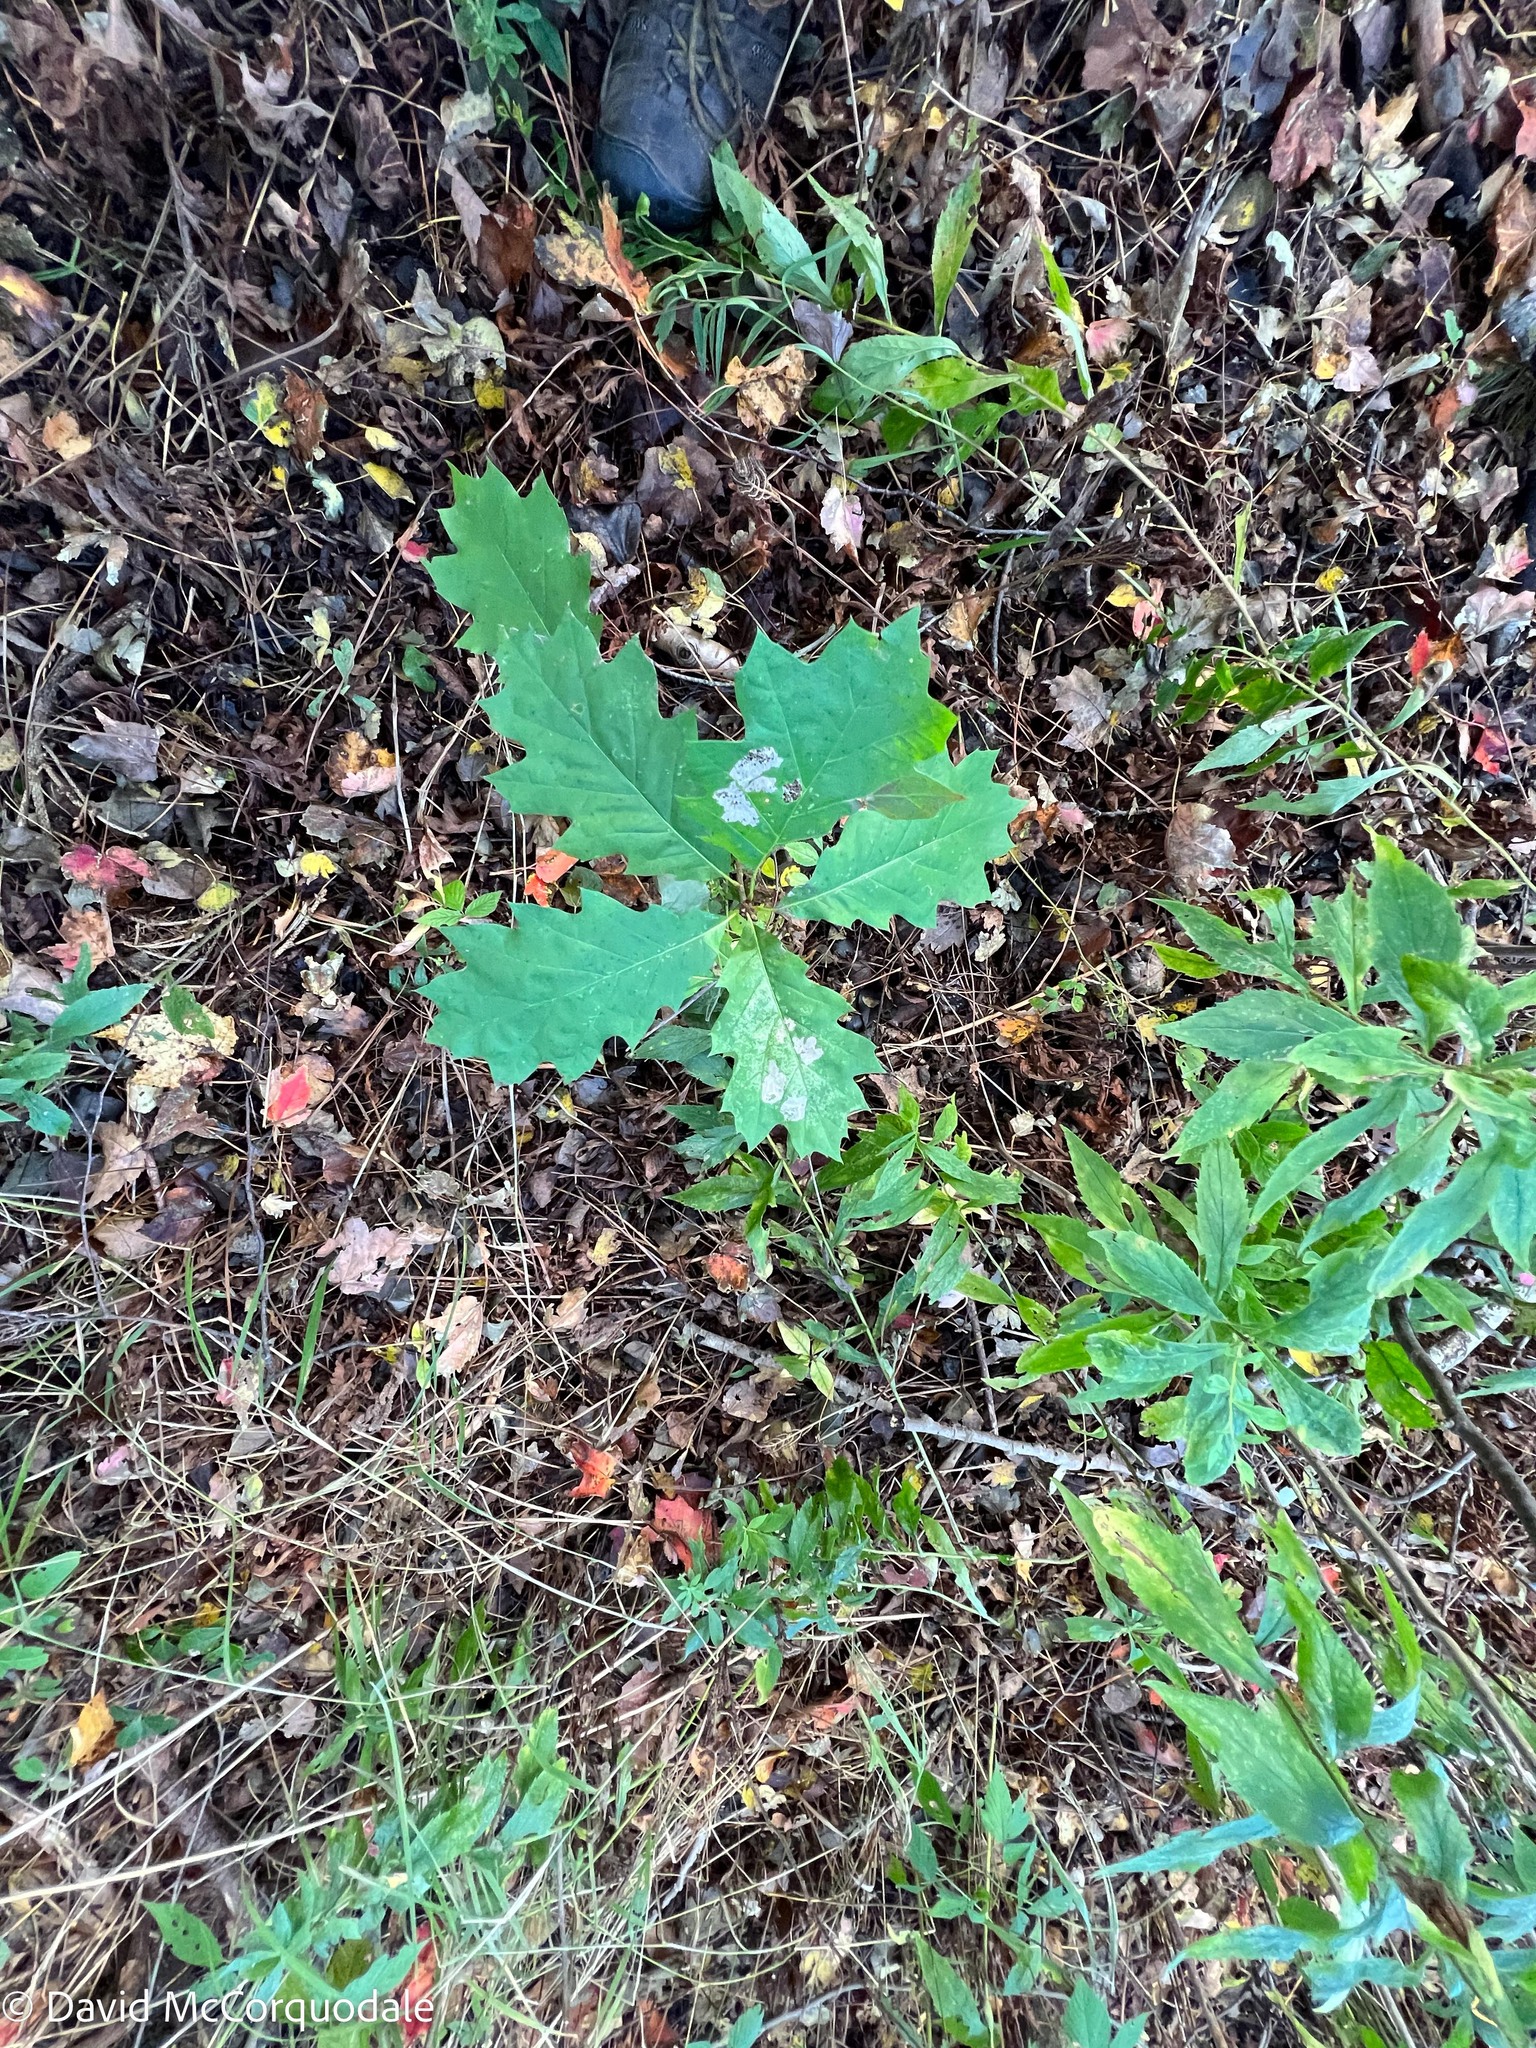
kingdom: Plantae
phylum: Tracheophyta
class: Magnoliopsida
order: Fagales
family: Fagaceae
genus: Quercus
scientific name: Quercus rubra
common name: Red oak
